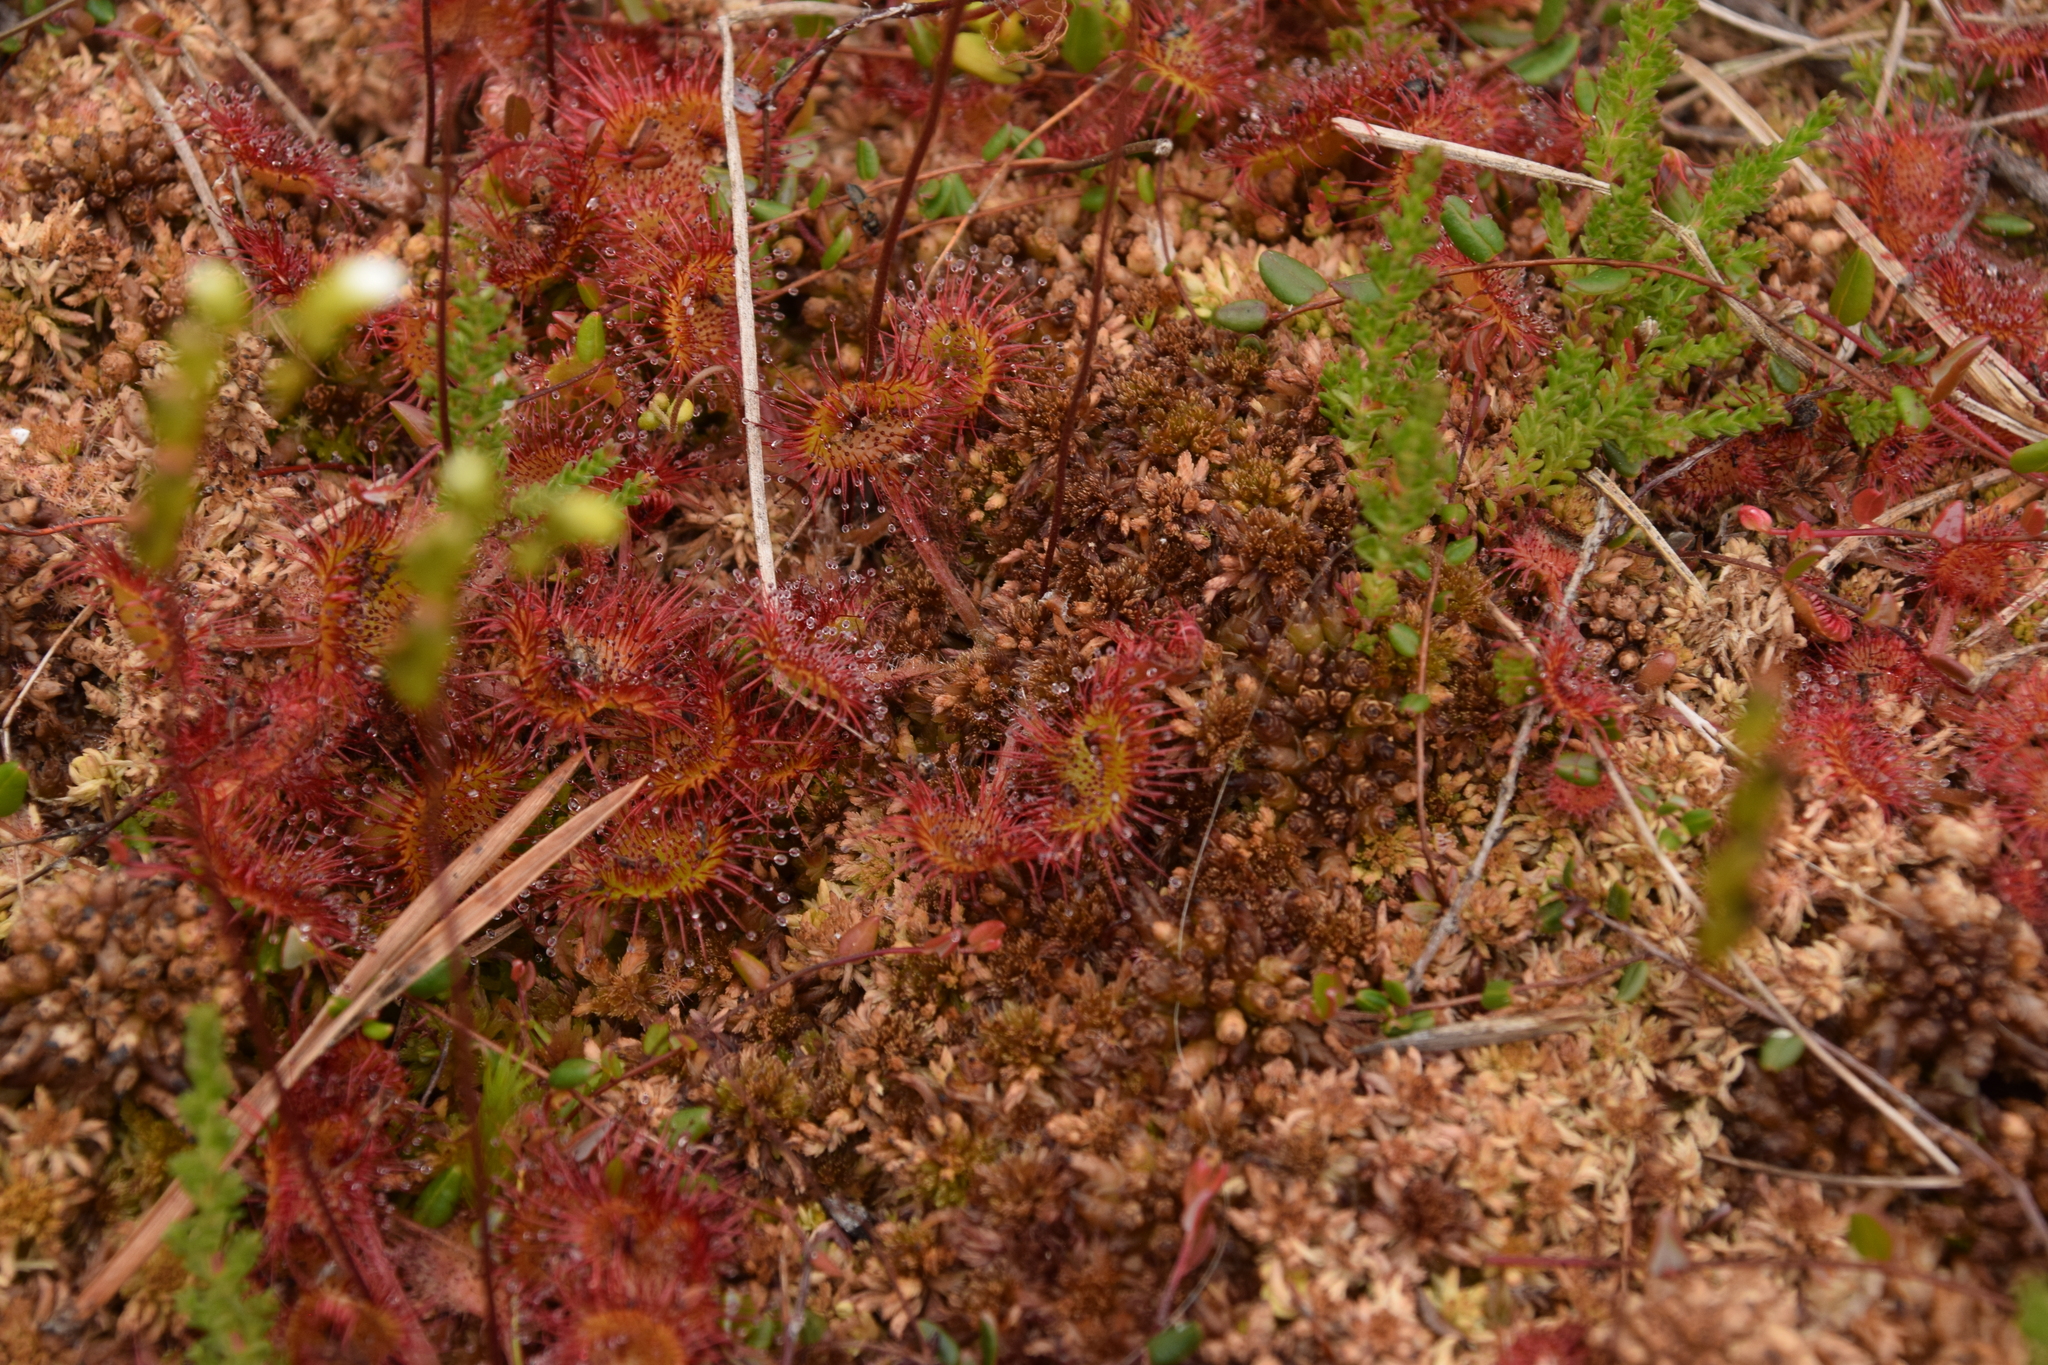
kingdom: Plantae
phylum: Tracheophyta
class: Magnoliopsida
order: Caryophyllales
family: Droseraceae
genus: Drosera
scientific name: Drosera rotundifolia
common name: Round-leaved sundew
